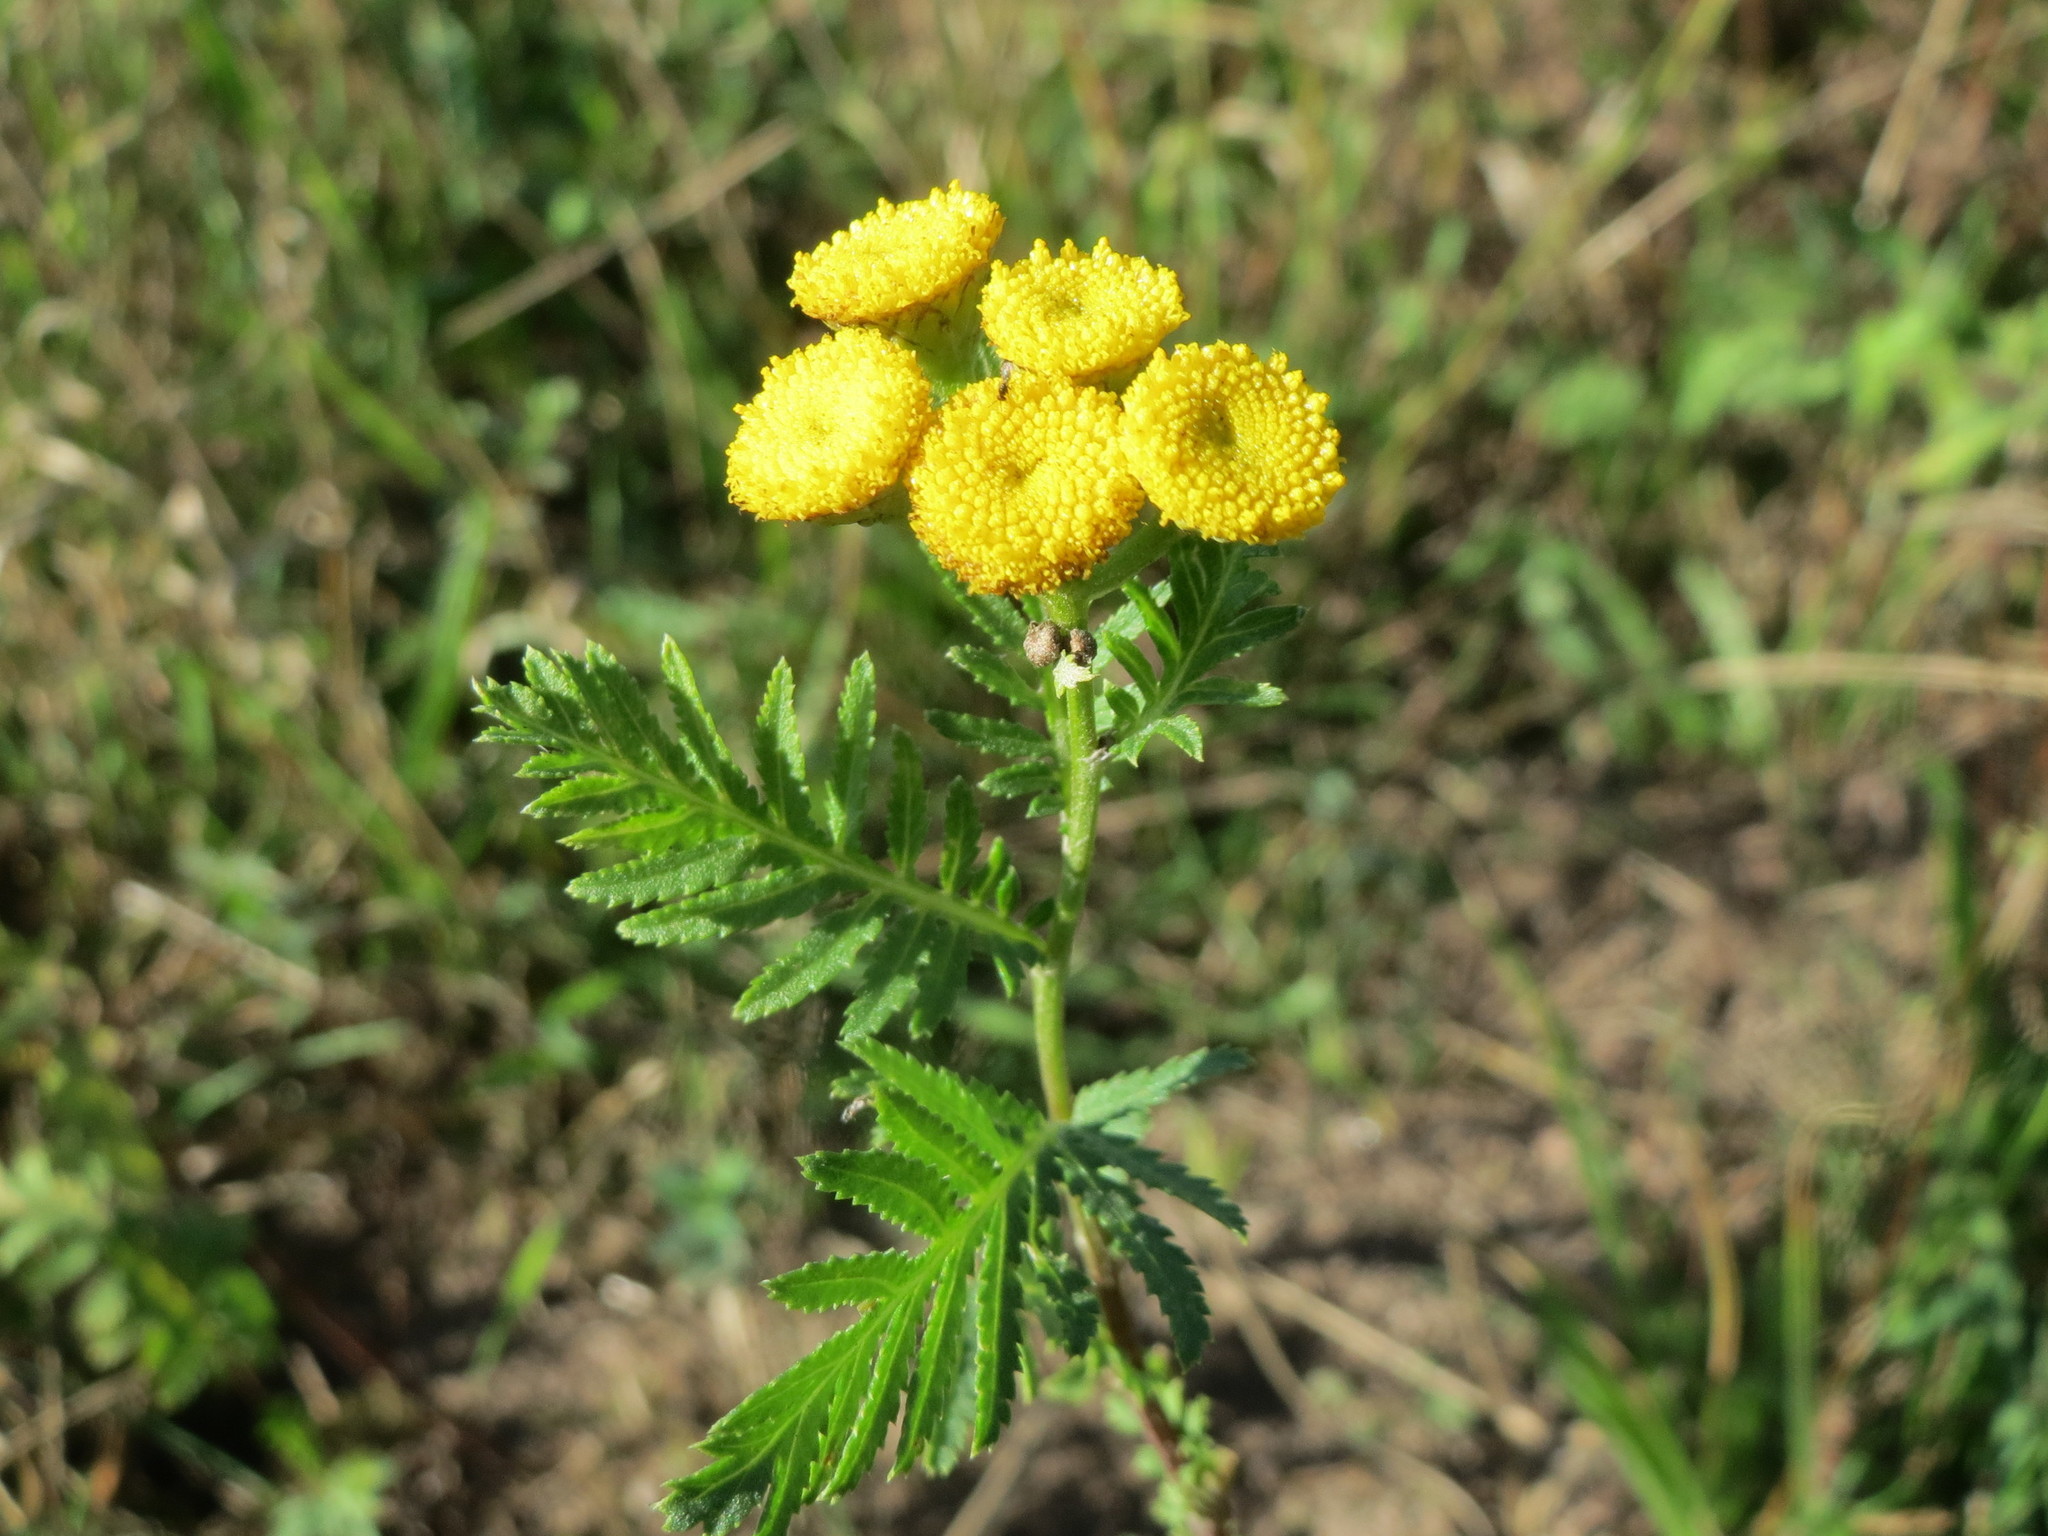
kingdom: Plantae
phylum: Tracheophyta
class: Magnoliopsida
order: Asterales
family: Asteraceae
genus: Tanacetum
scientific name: Tanacetum vulgare
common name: Common tansy
